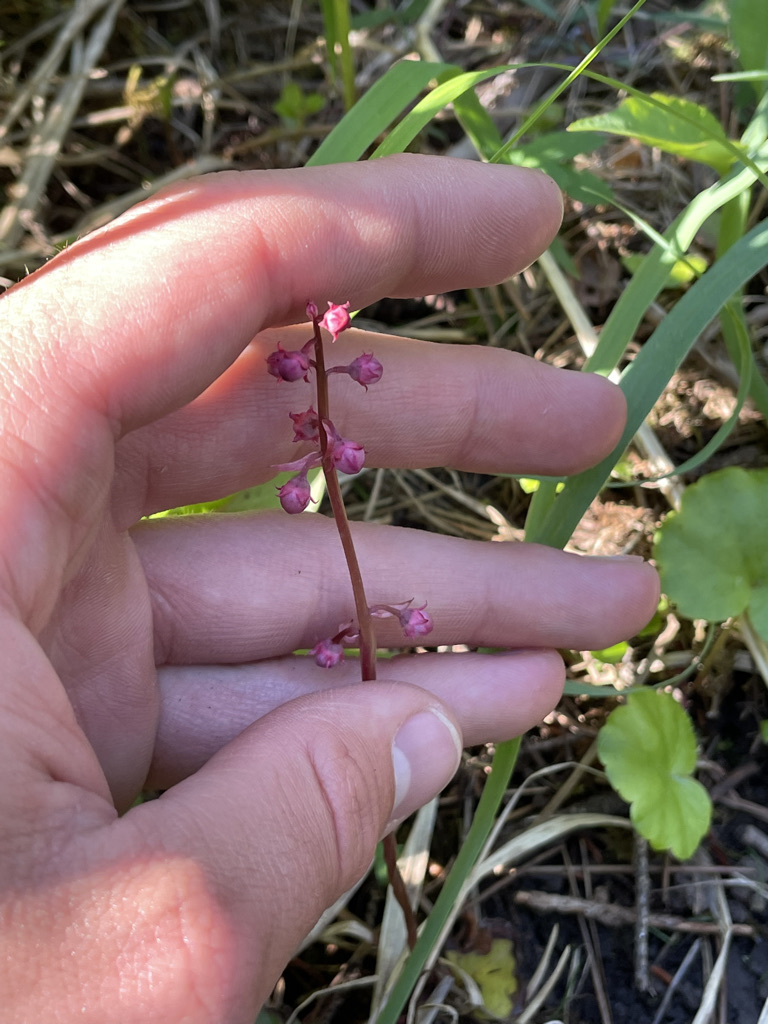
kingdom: Plantae
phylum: Tracheophyta
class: Magnoliopsida
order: Ericales
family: Ericaceae
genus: Pyrola
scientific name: Pyrola asarifolia
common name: Bog wintergreen
